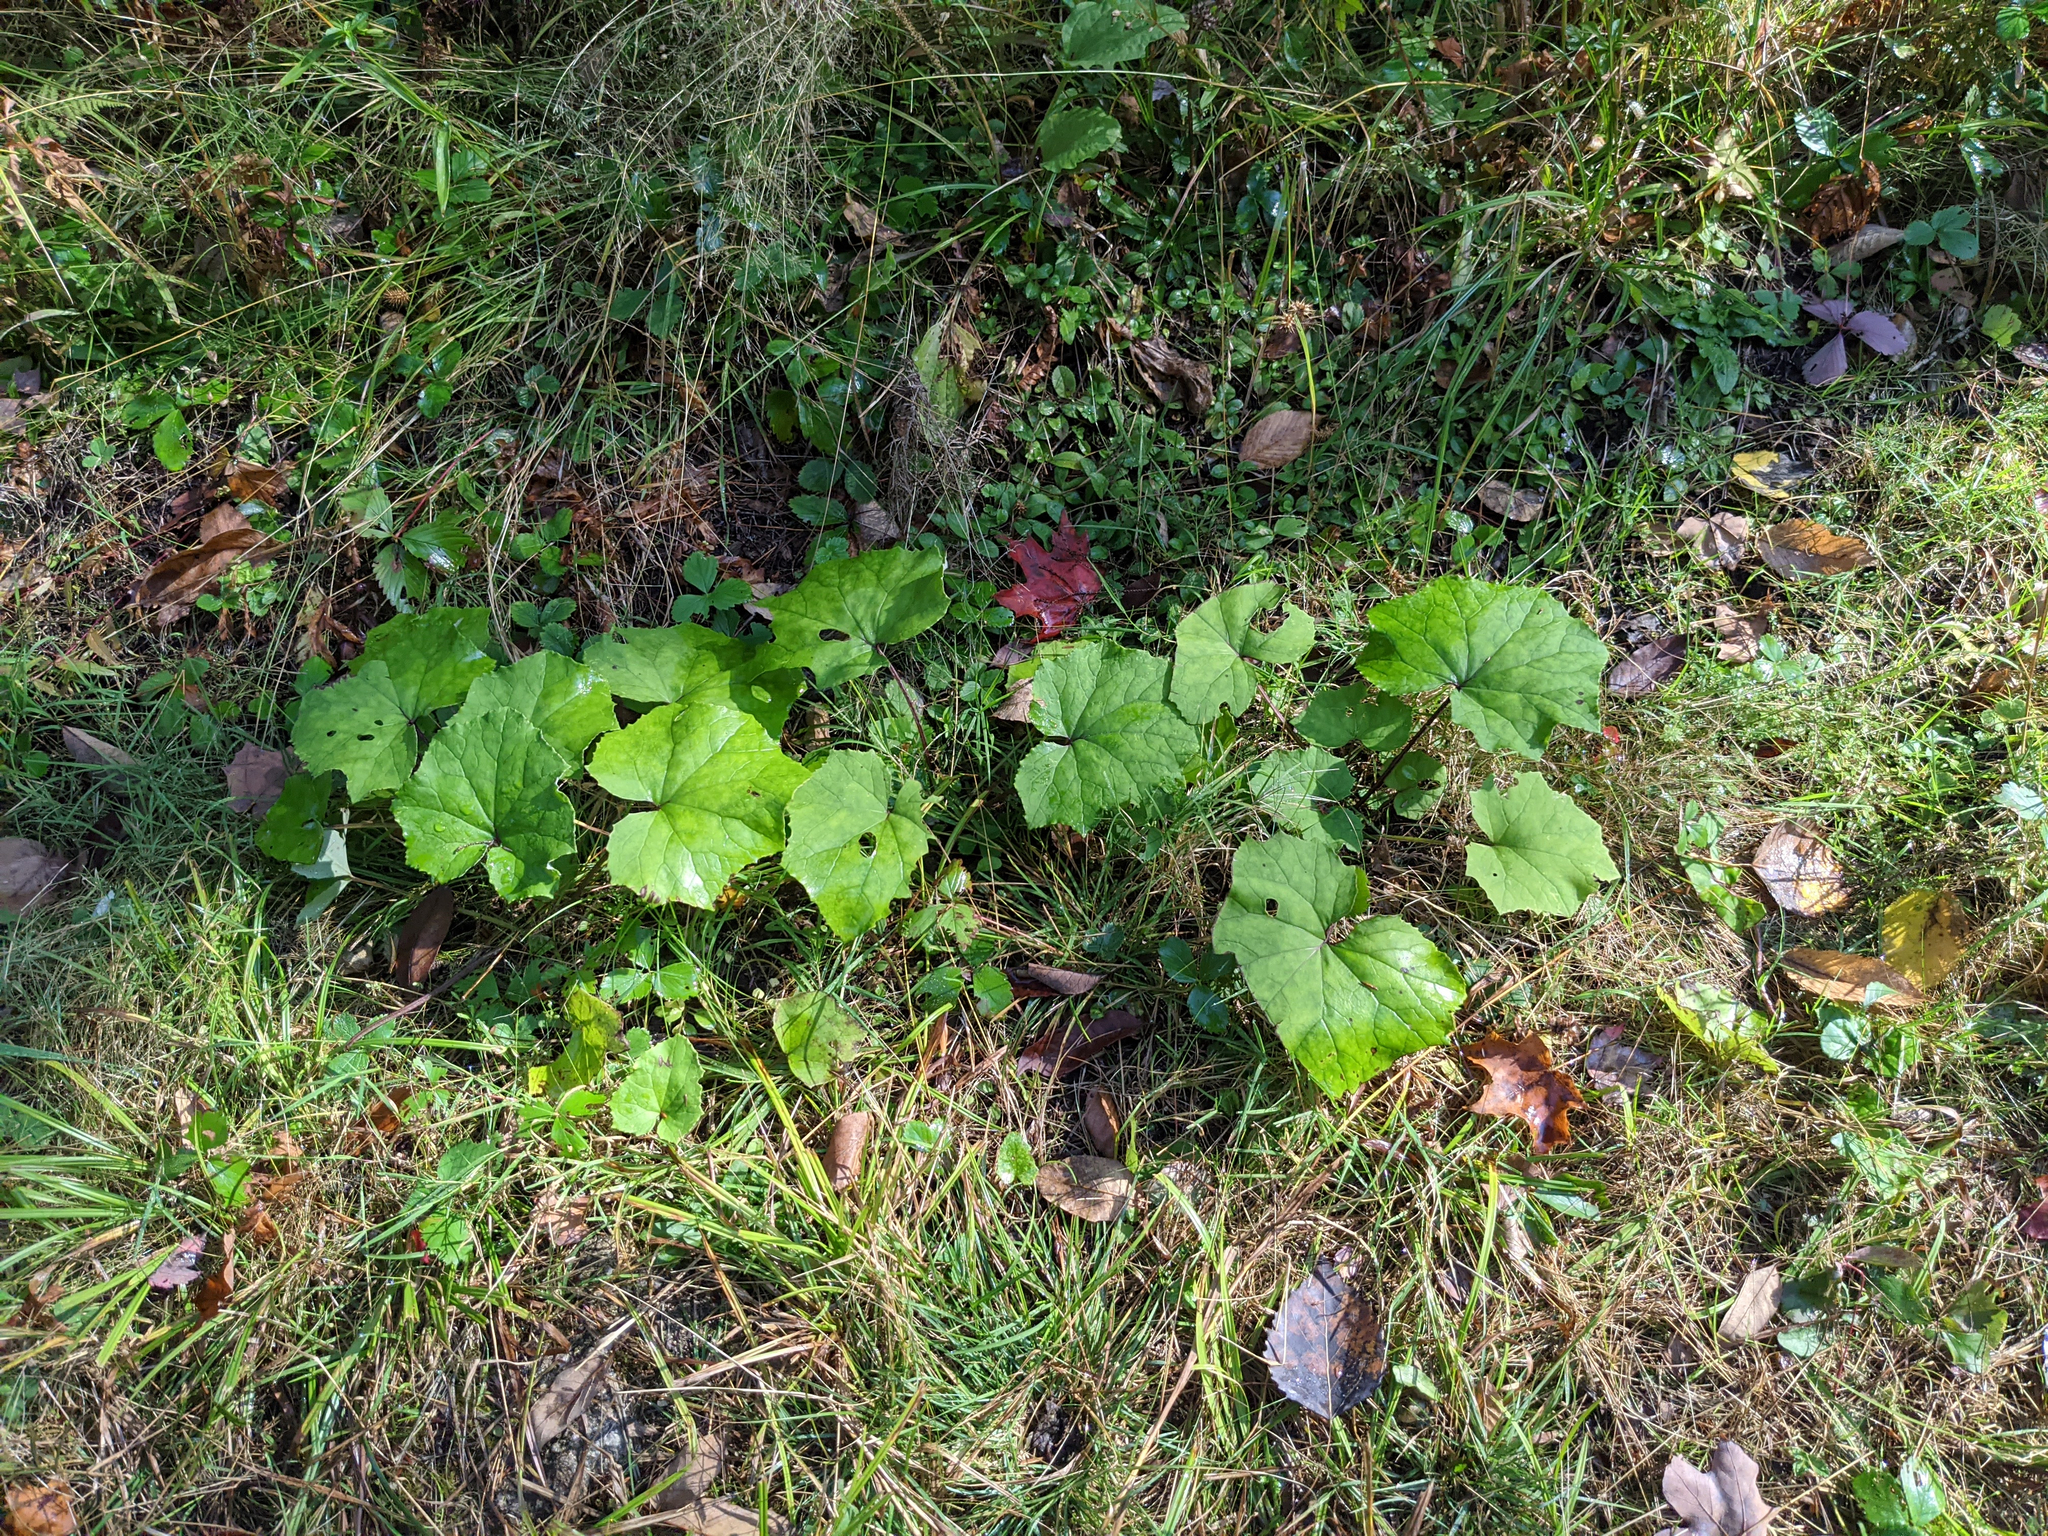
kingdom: Plantae
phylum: Tracheophyta
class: Magnoliopsida
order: Asterales
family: Asteraceae
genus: Tussilago
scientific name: Tussilago farfara
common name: Coltsfoot
